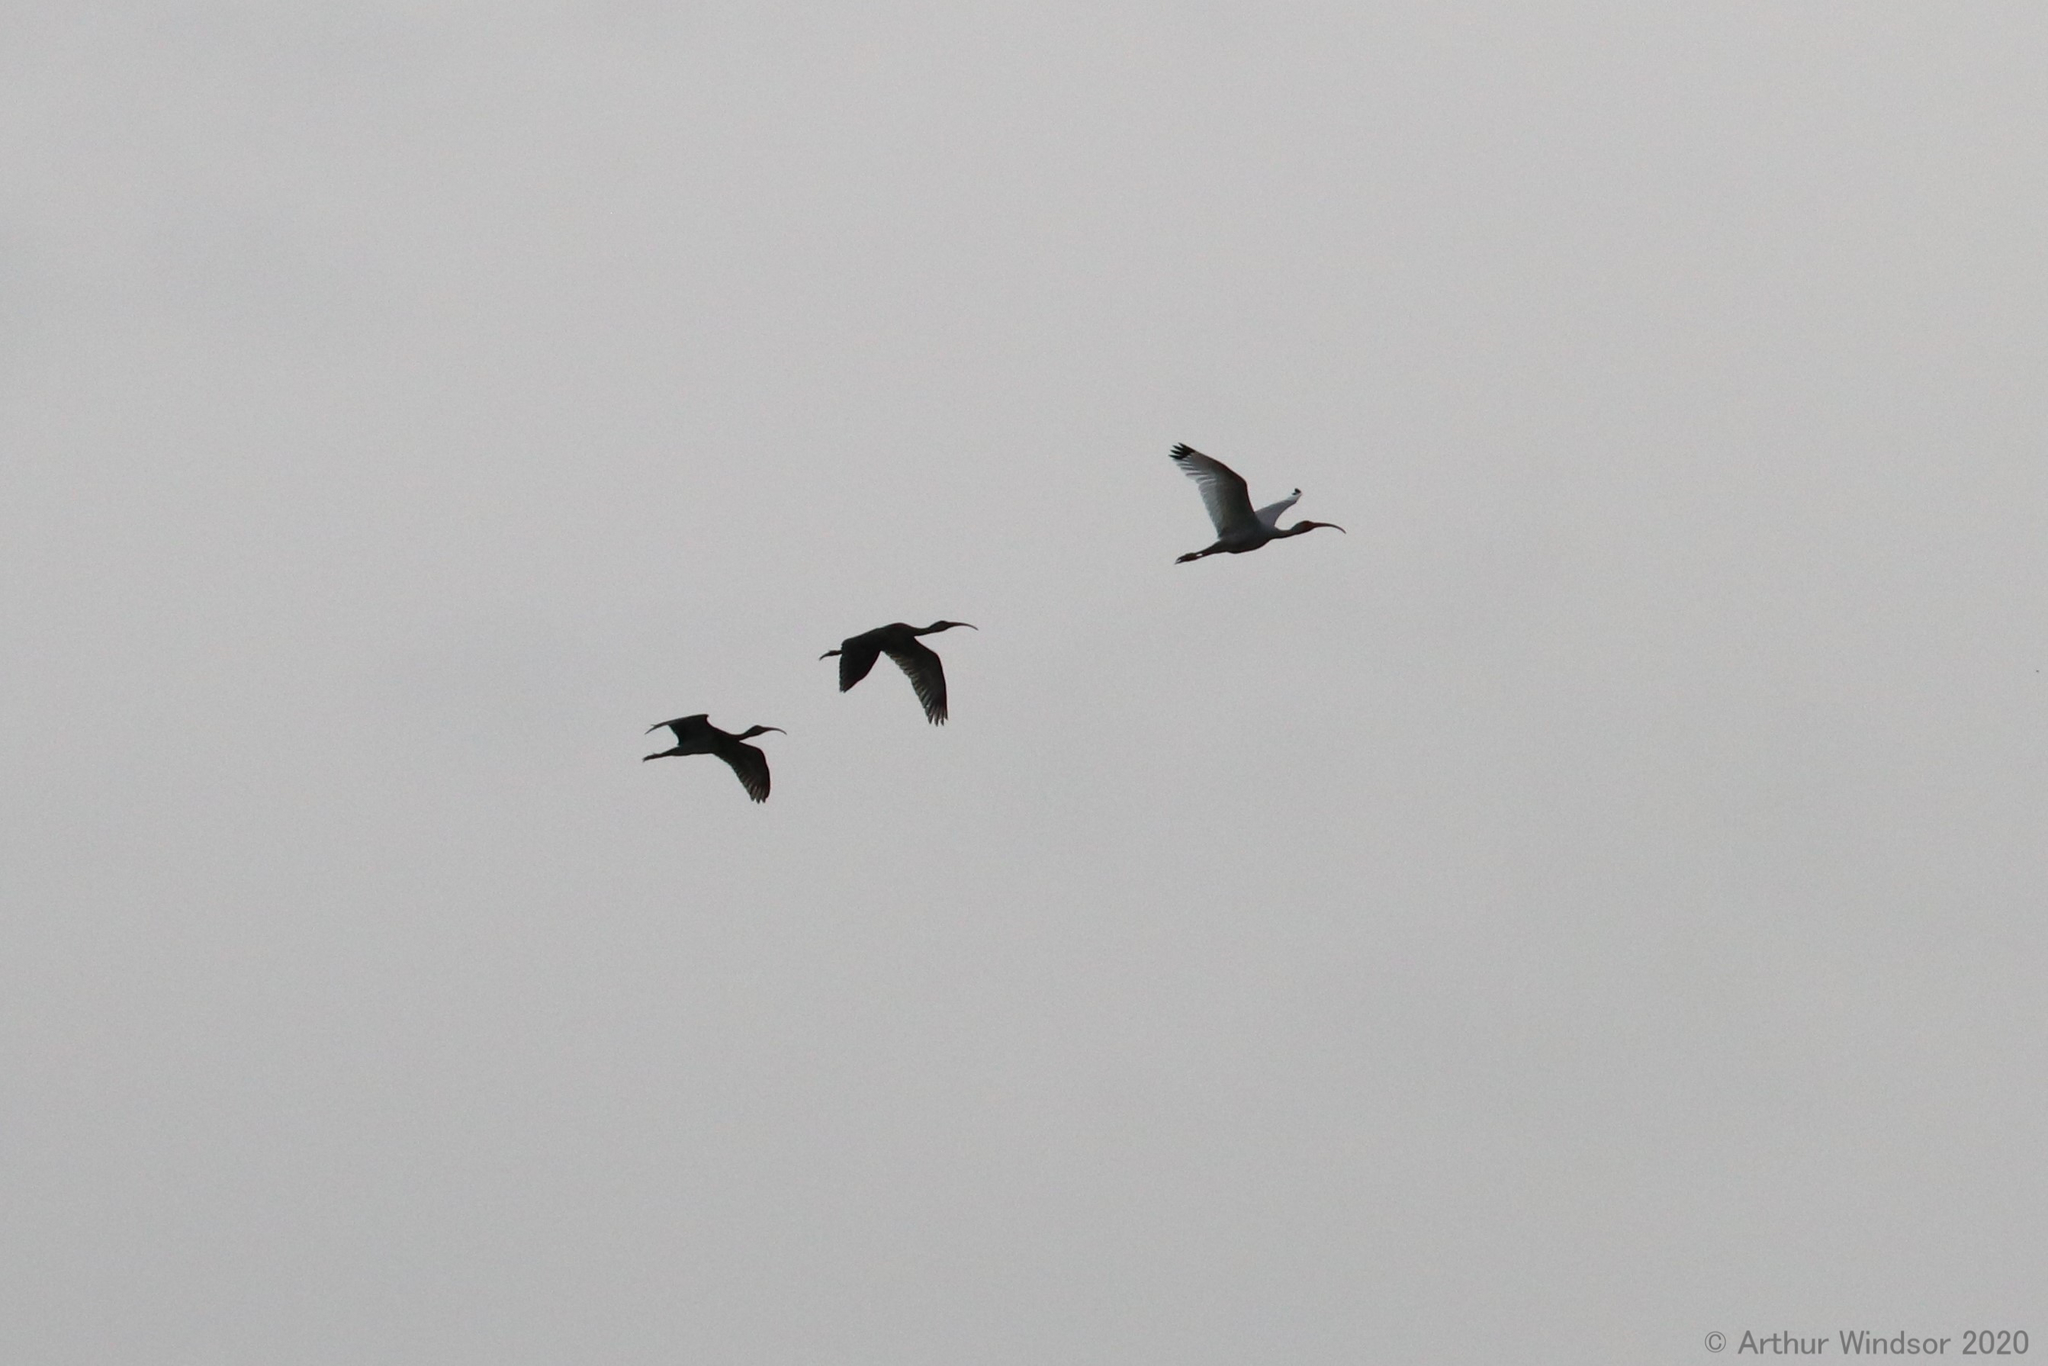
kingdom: Animalia
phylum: Chordata
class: Aves
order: Pelecaniformes
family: Threskiornithidae
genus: Eudocimus
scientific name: Eudocimus albus
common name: White ibis
